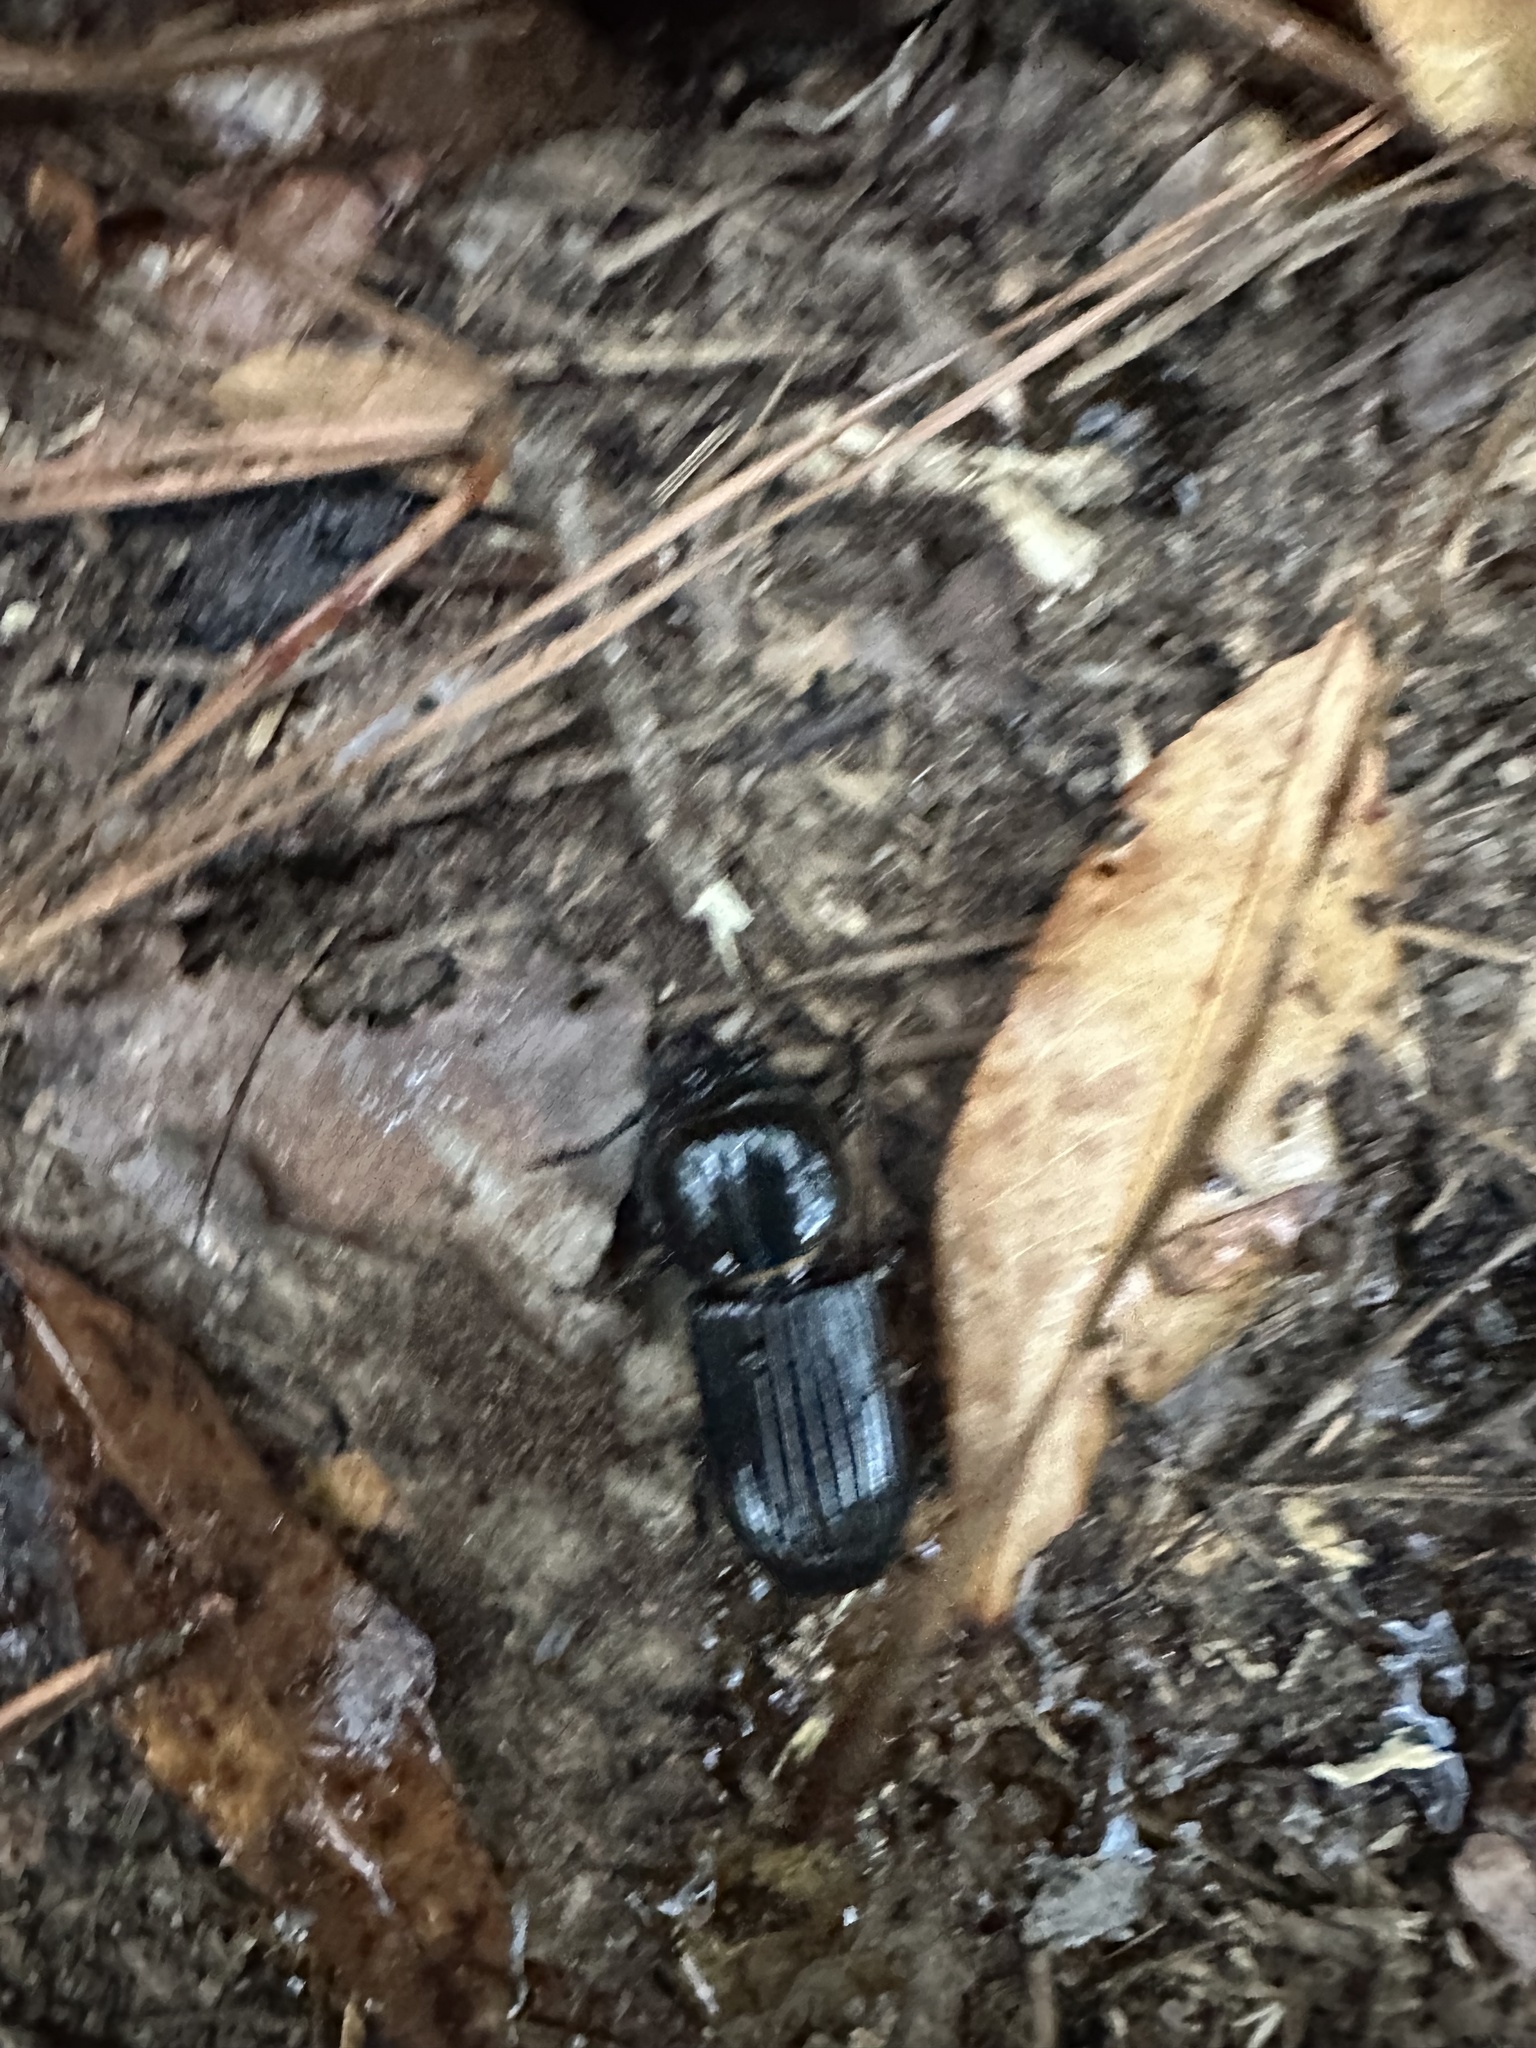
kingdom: Animalia
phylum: Arthropoda
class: Insecta
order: Coleoptera
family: Passalidae
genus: Odontotaenius
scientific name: Odontotaenius disjunctus
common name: Patent leather beetle
